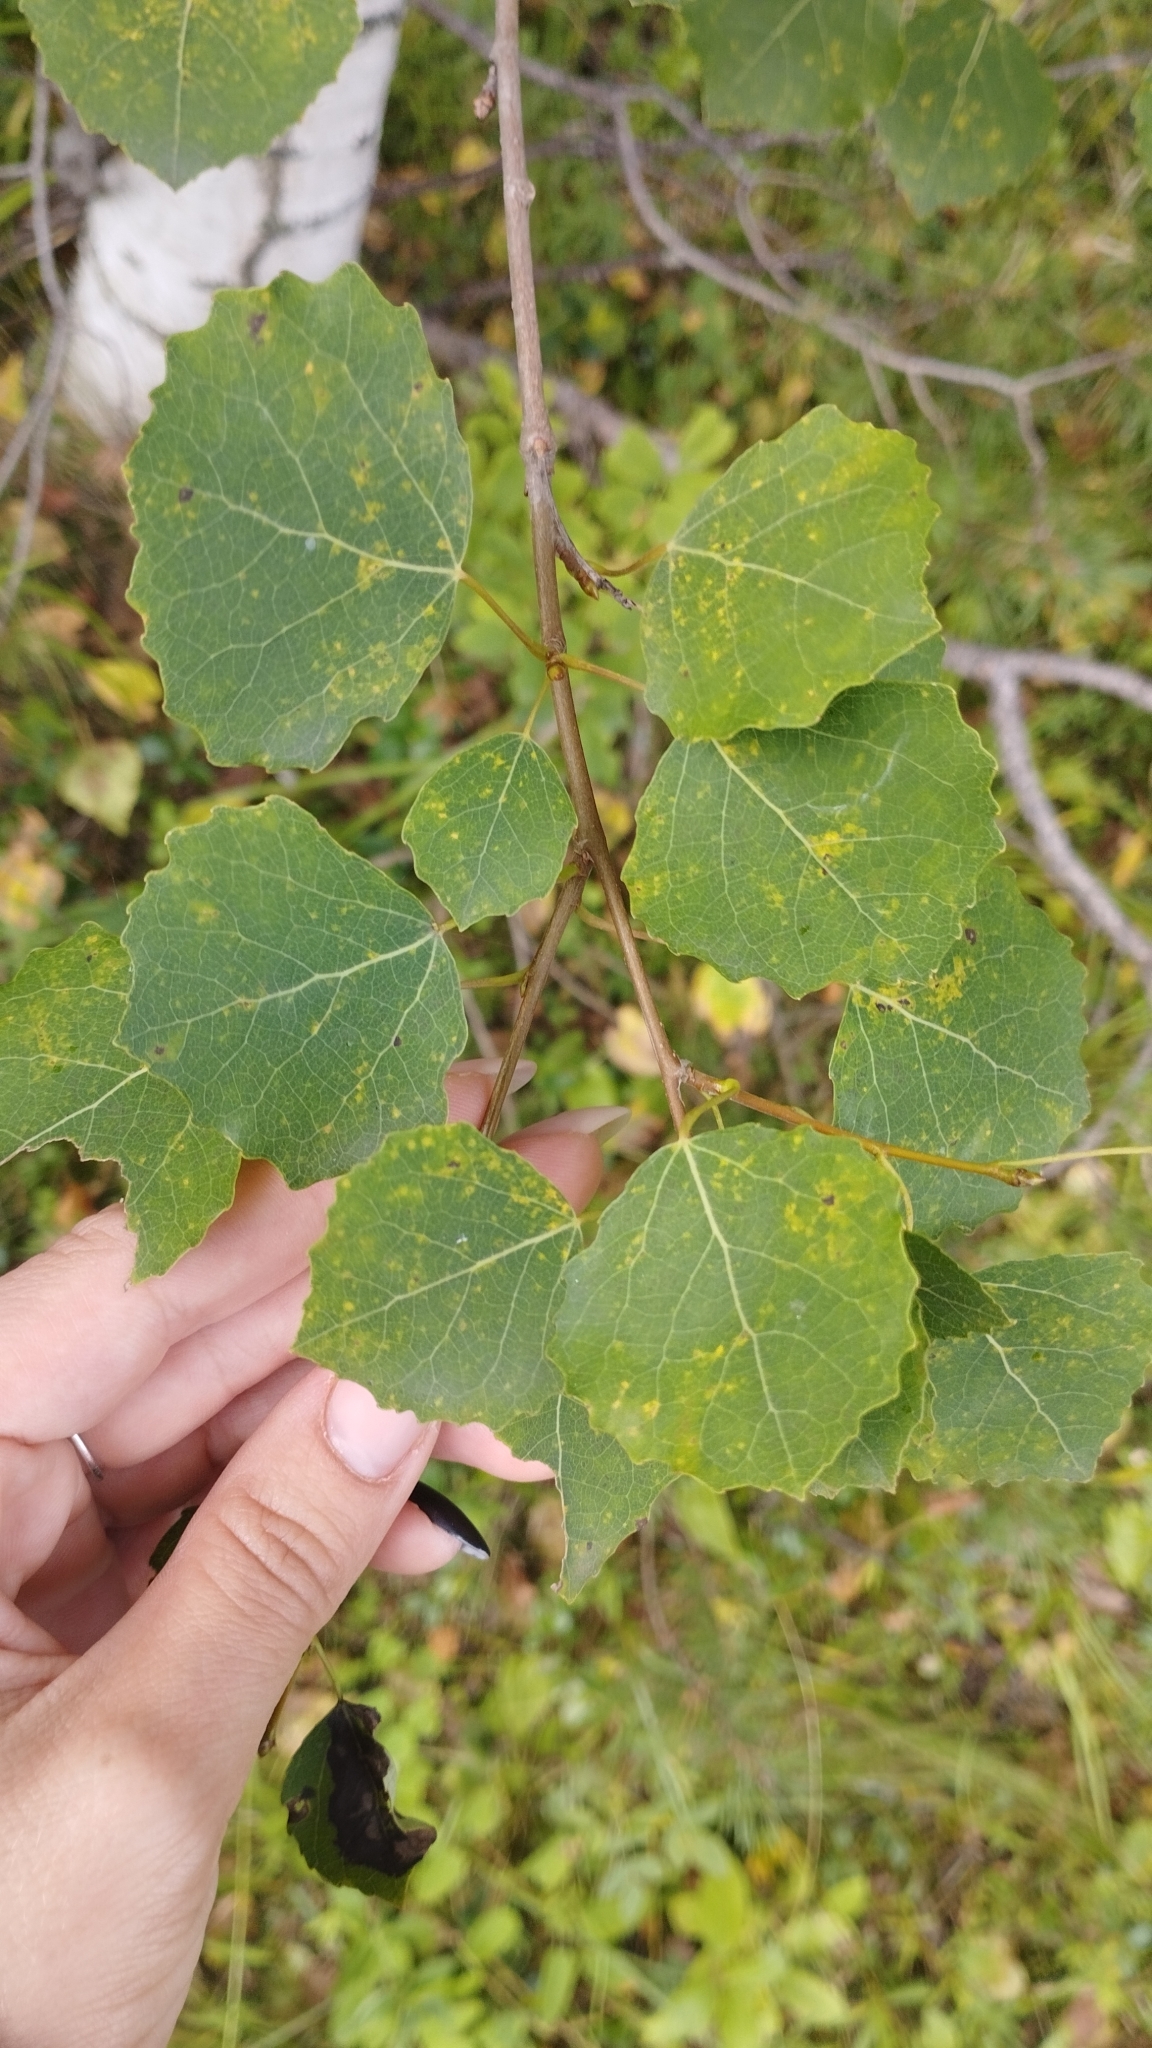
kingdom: Plantae
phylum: Tracheophyta
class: Magnoliopsida
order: Malpighiales
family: Salicaceae
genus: Populus
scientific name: Populus tremula
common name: European aspen
